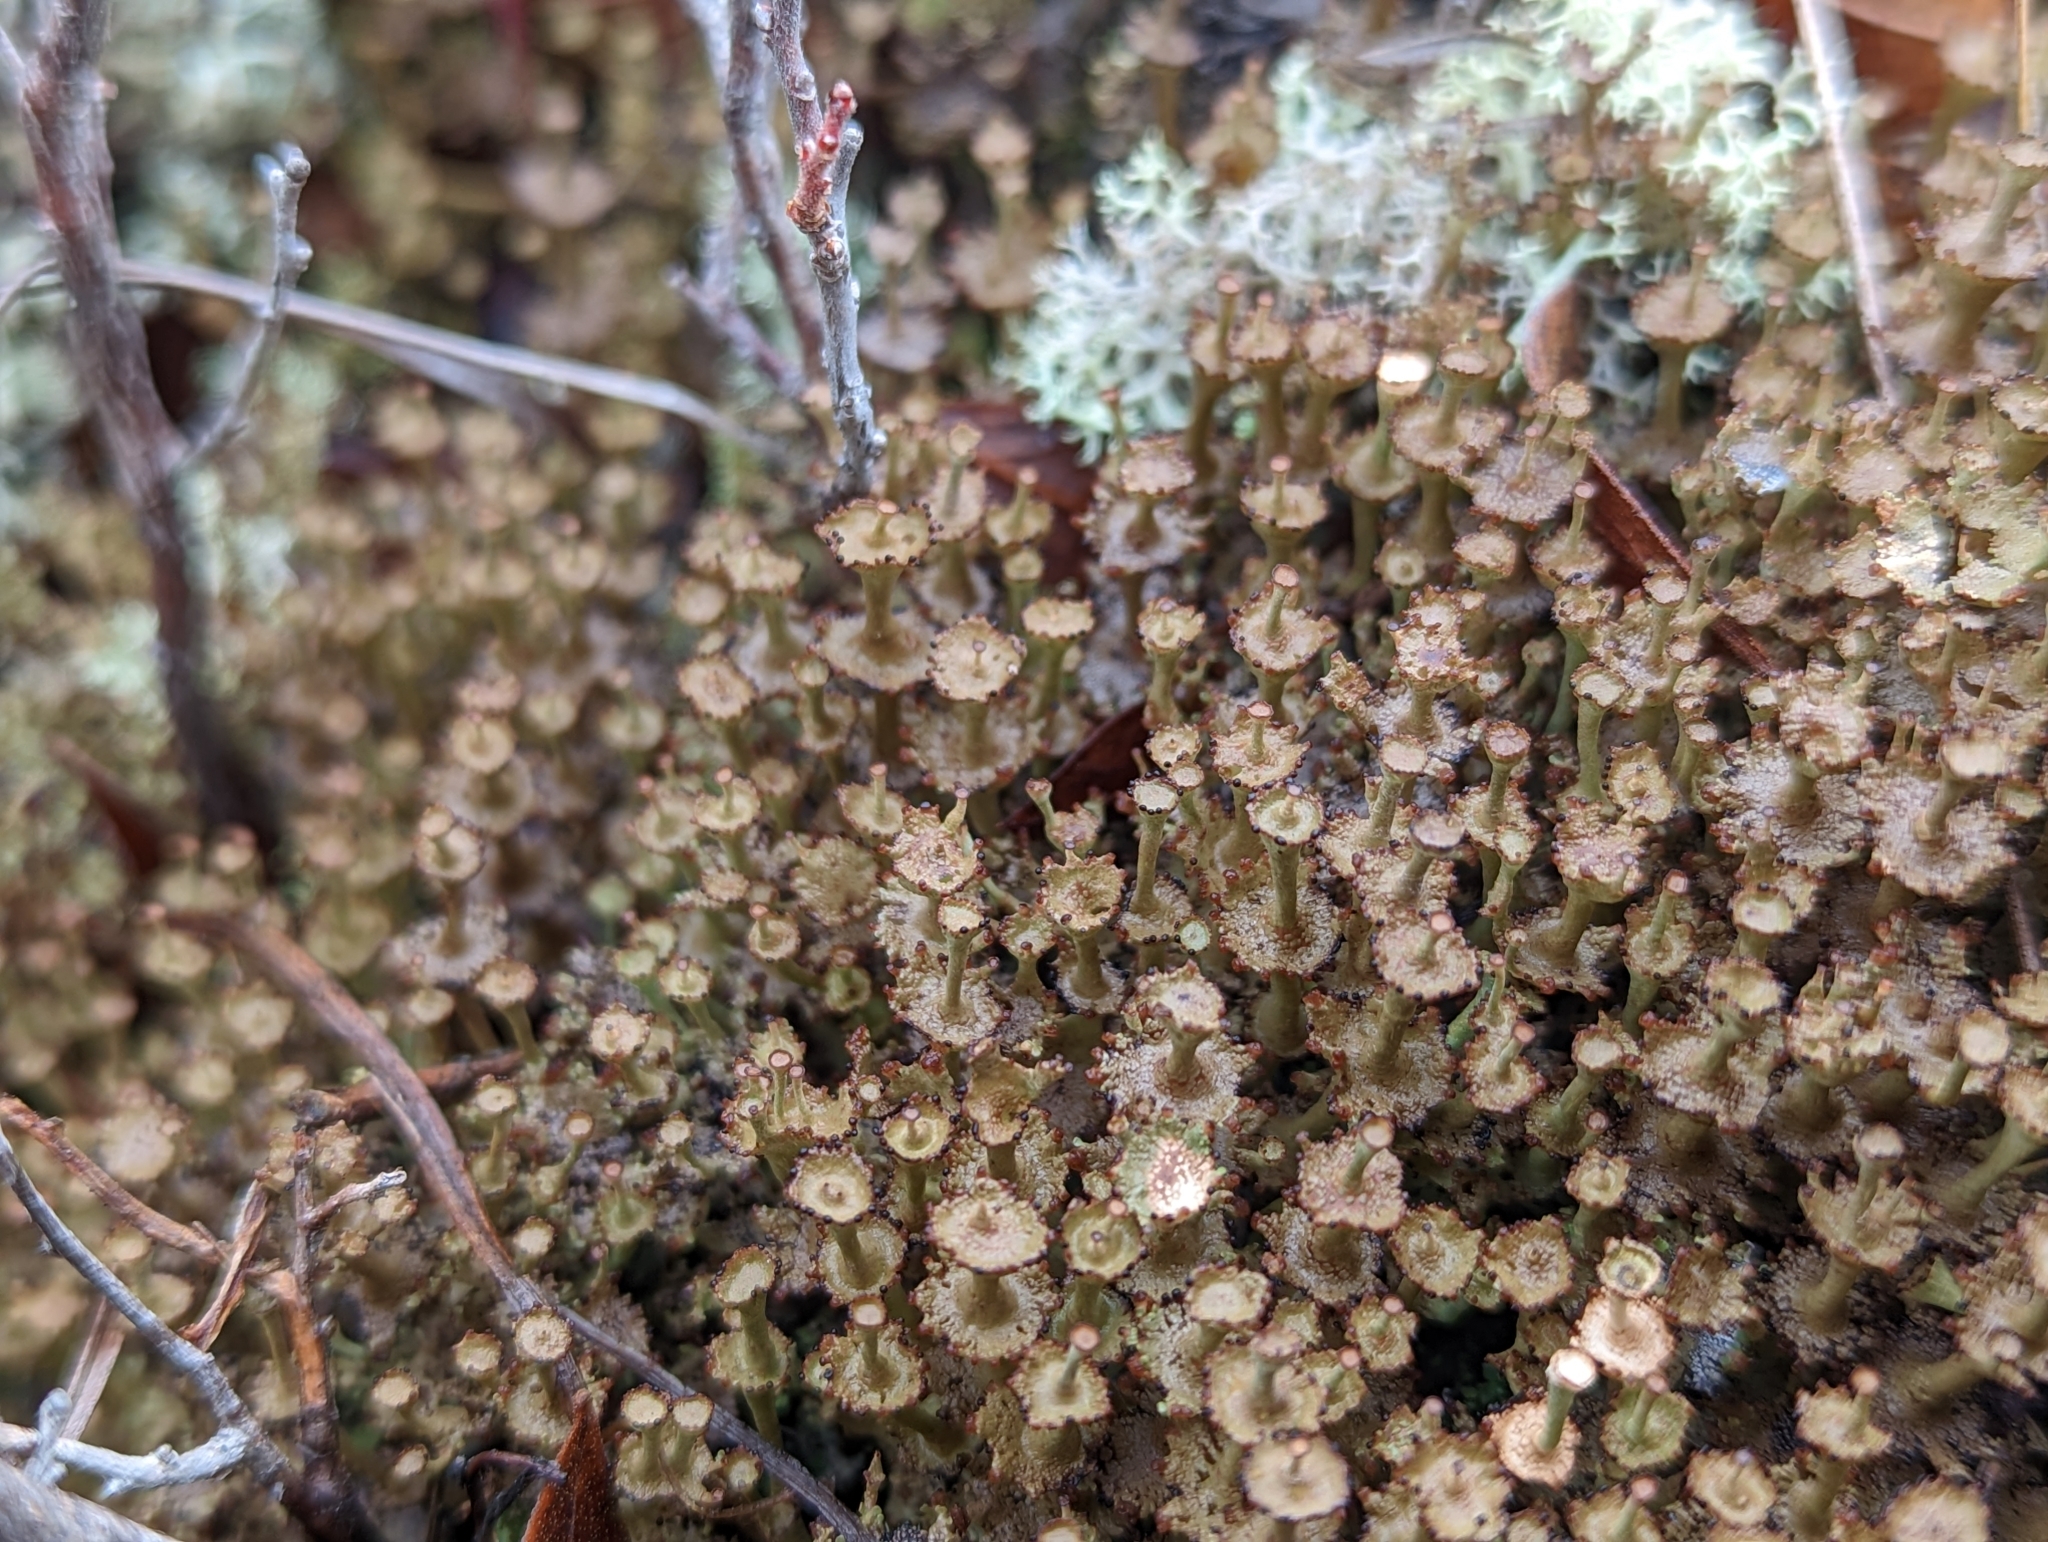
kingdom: Fungi
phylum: Ascomycota
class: Lecanoromycetes
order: Lecanorales
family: Cladoniaceae
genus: Cladonia
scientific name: Cladonia cervicornis
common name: Browned pixie-cup lichen
